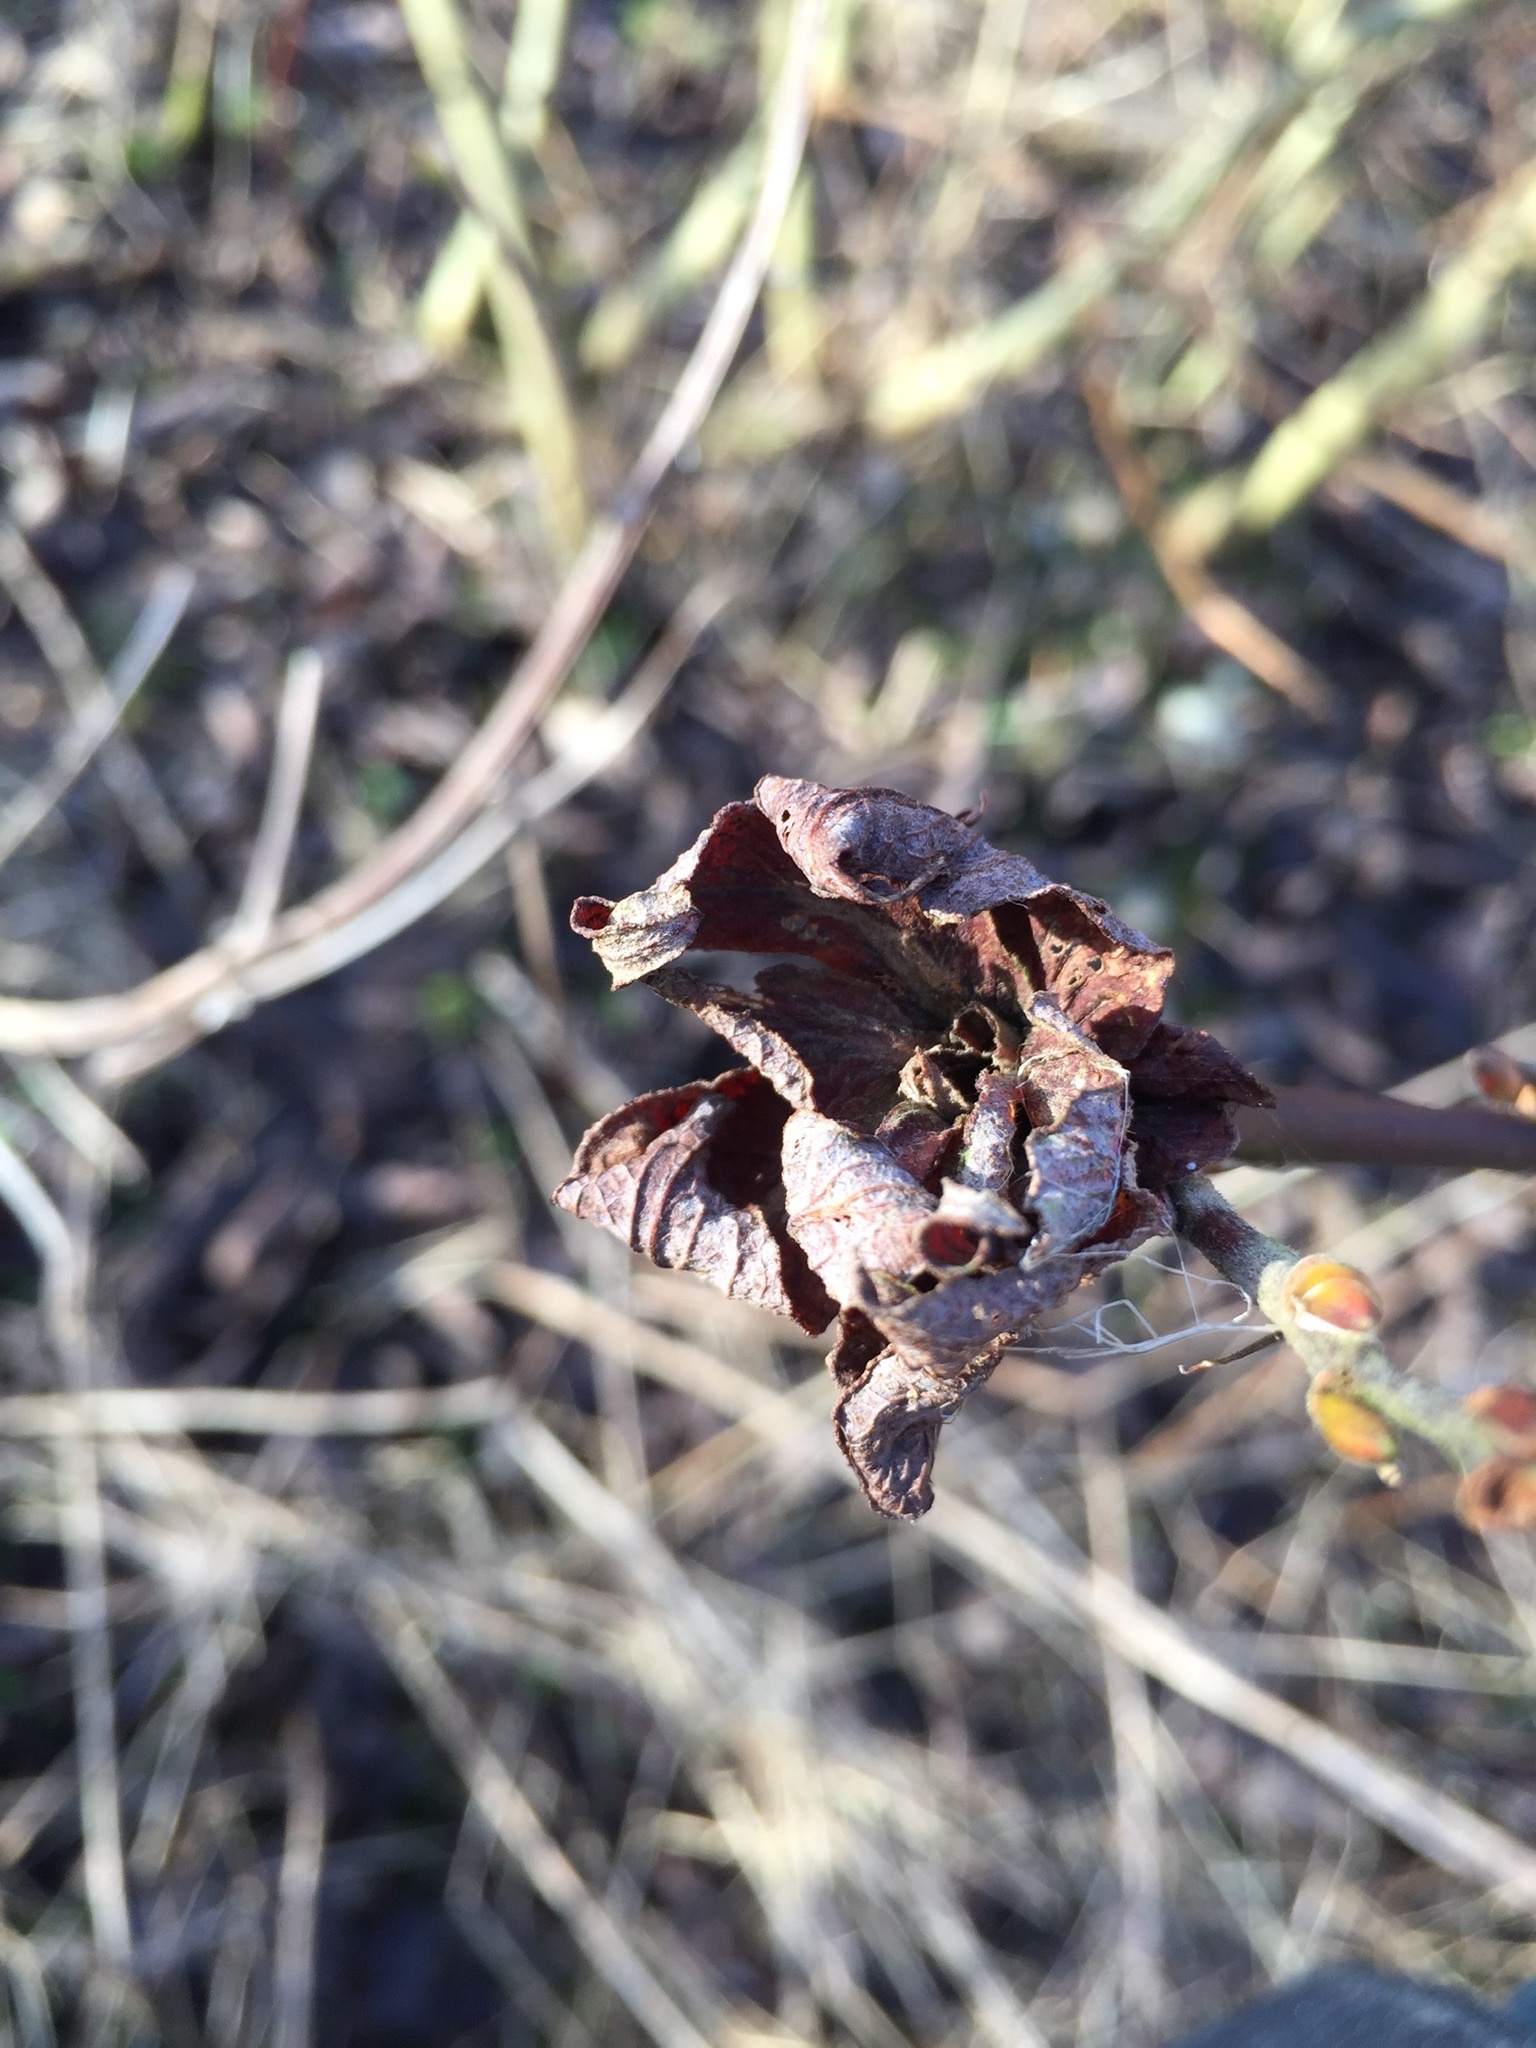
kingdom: Animalia
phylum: Arthropoda
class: Insecta
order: Diptera
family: Cecidomyiidae
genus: Rabdophaga
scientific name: Rabdophaga rosaria
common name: Willow rose gall midge
